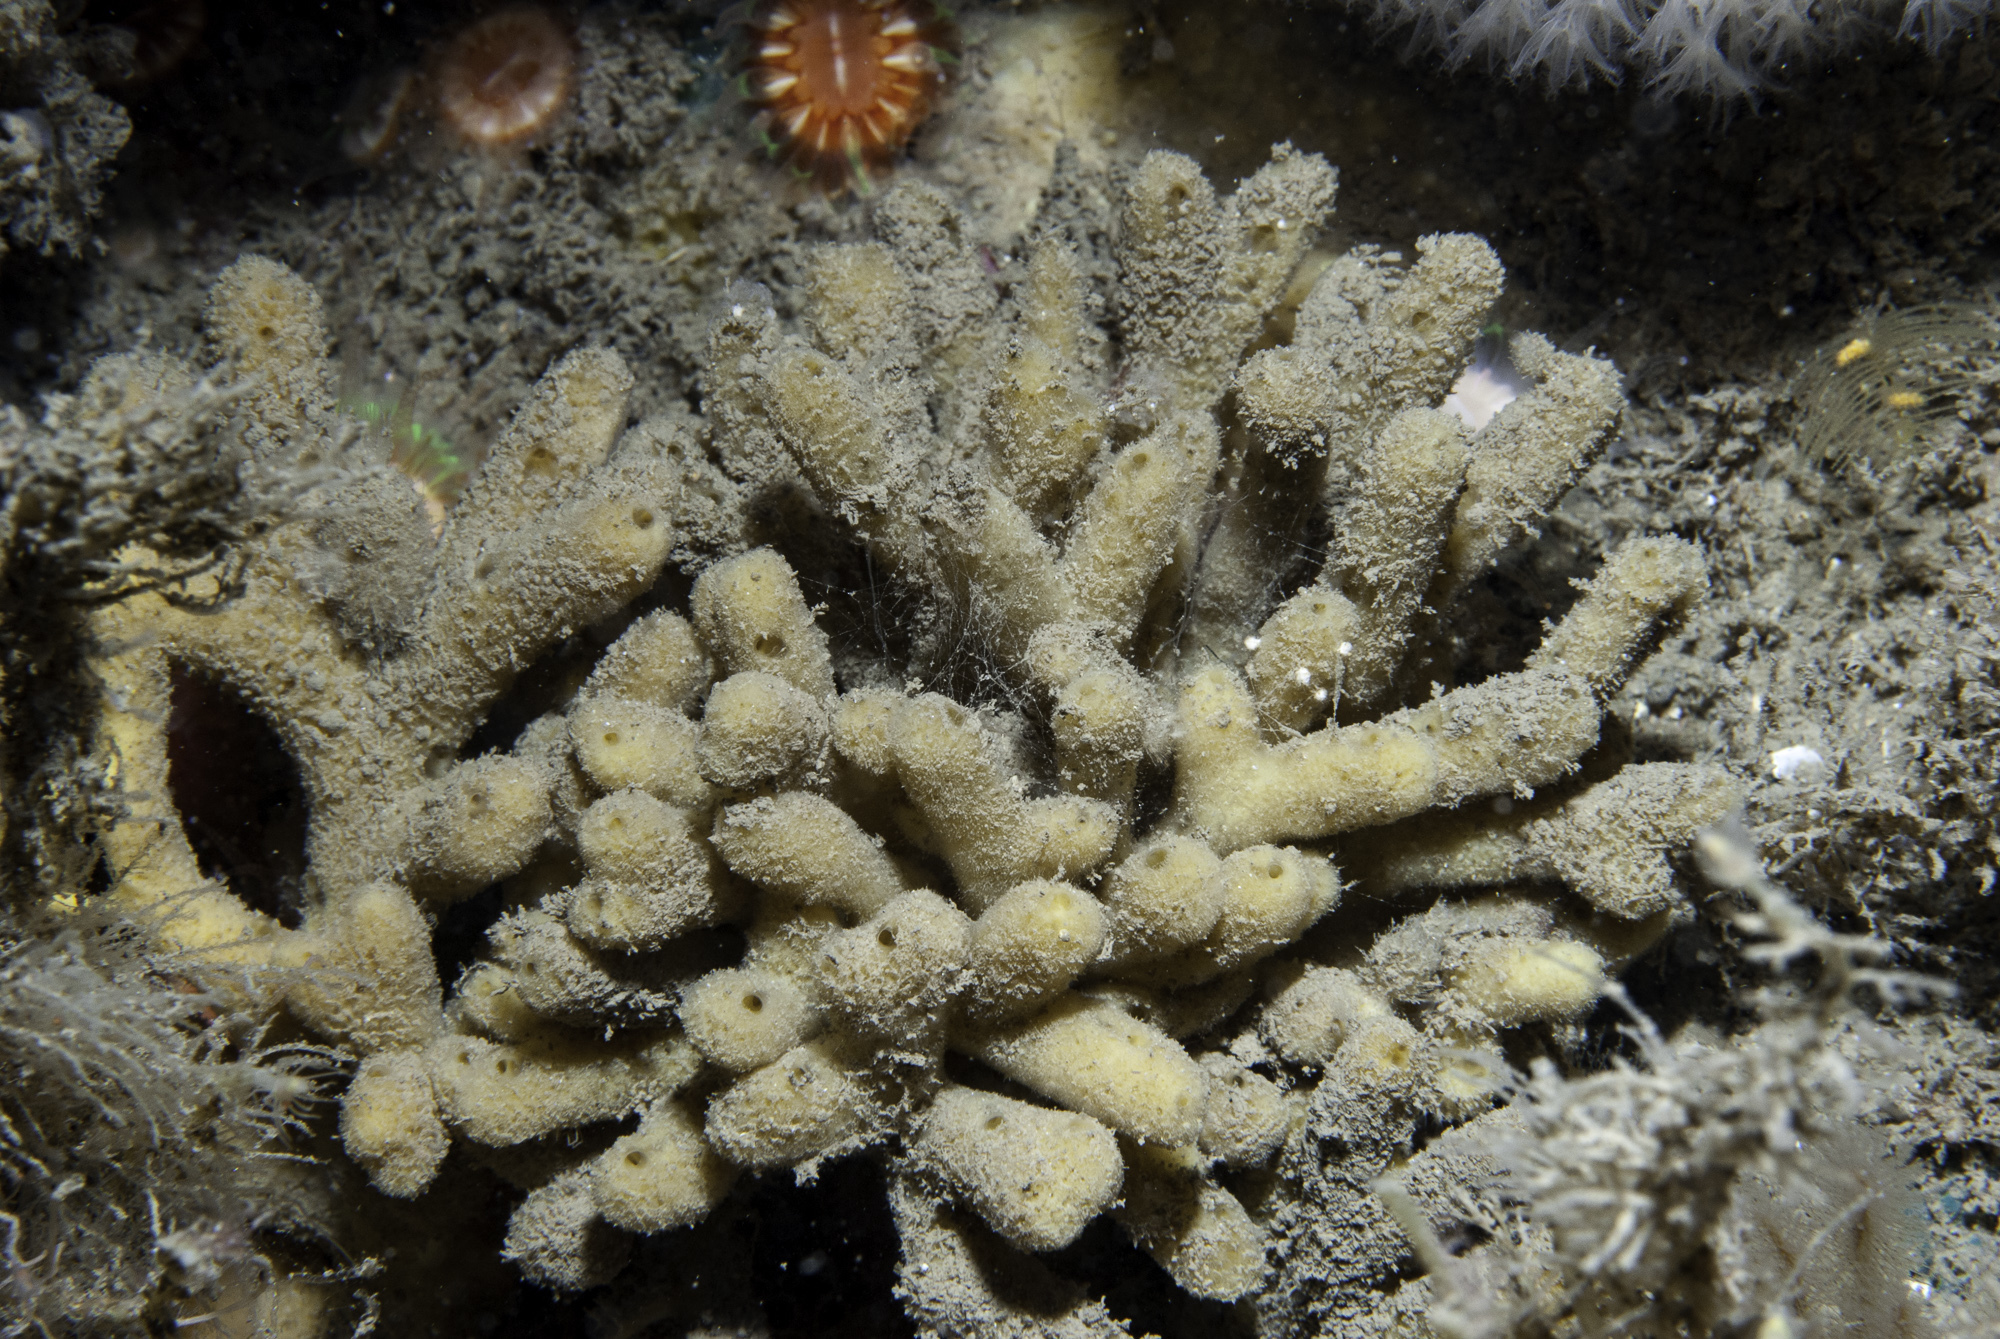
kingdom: Animalia
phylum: Porifera
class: Demospongiae
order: Axinellida
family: Stelligeridae
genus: Stelligera
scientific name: Stelligera stuposa
